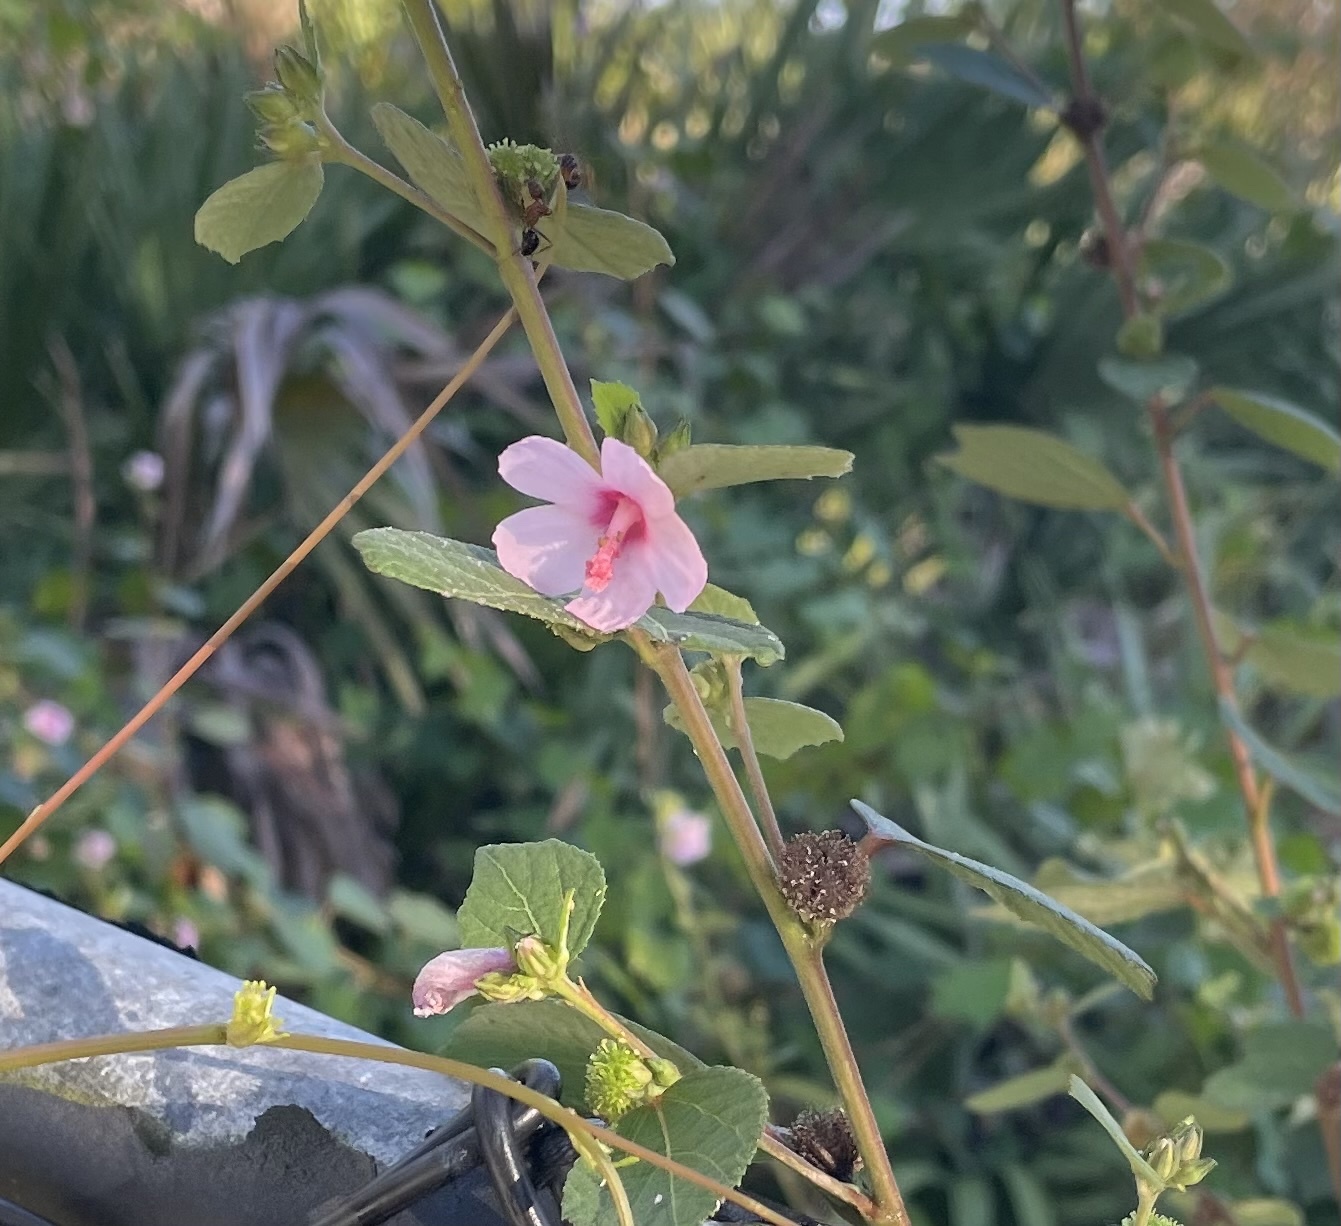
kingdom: Plantae
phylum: Tracheophyta
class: Magnoliopsida
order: Malvales
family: Malvaceae
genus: Urena
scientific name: Urena lobata
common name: Caesarweed
